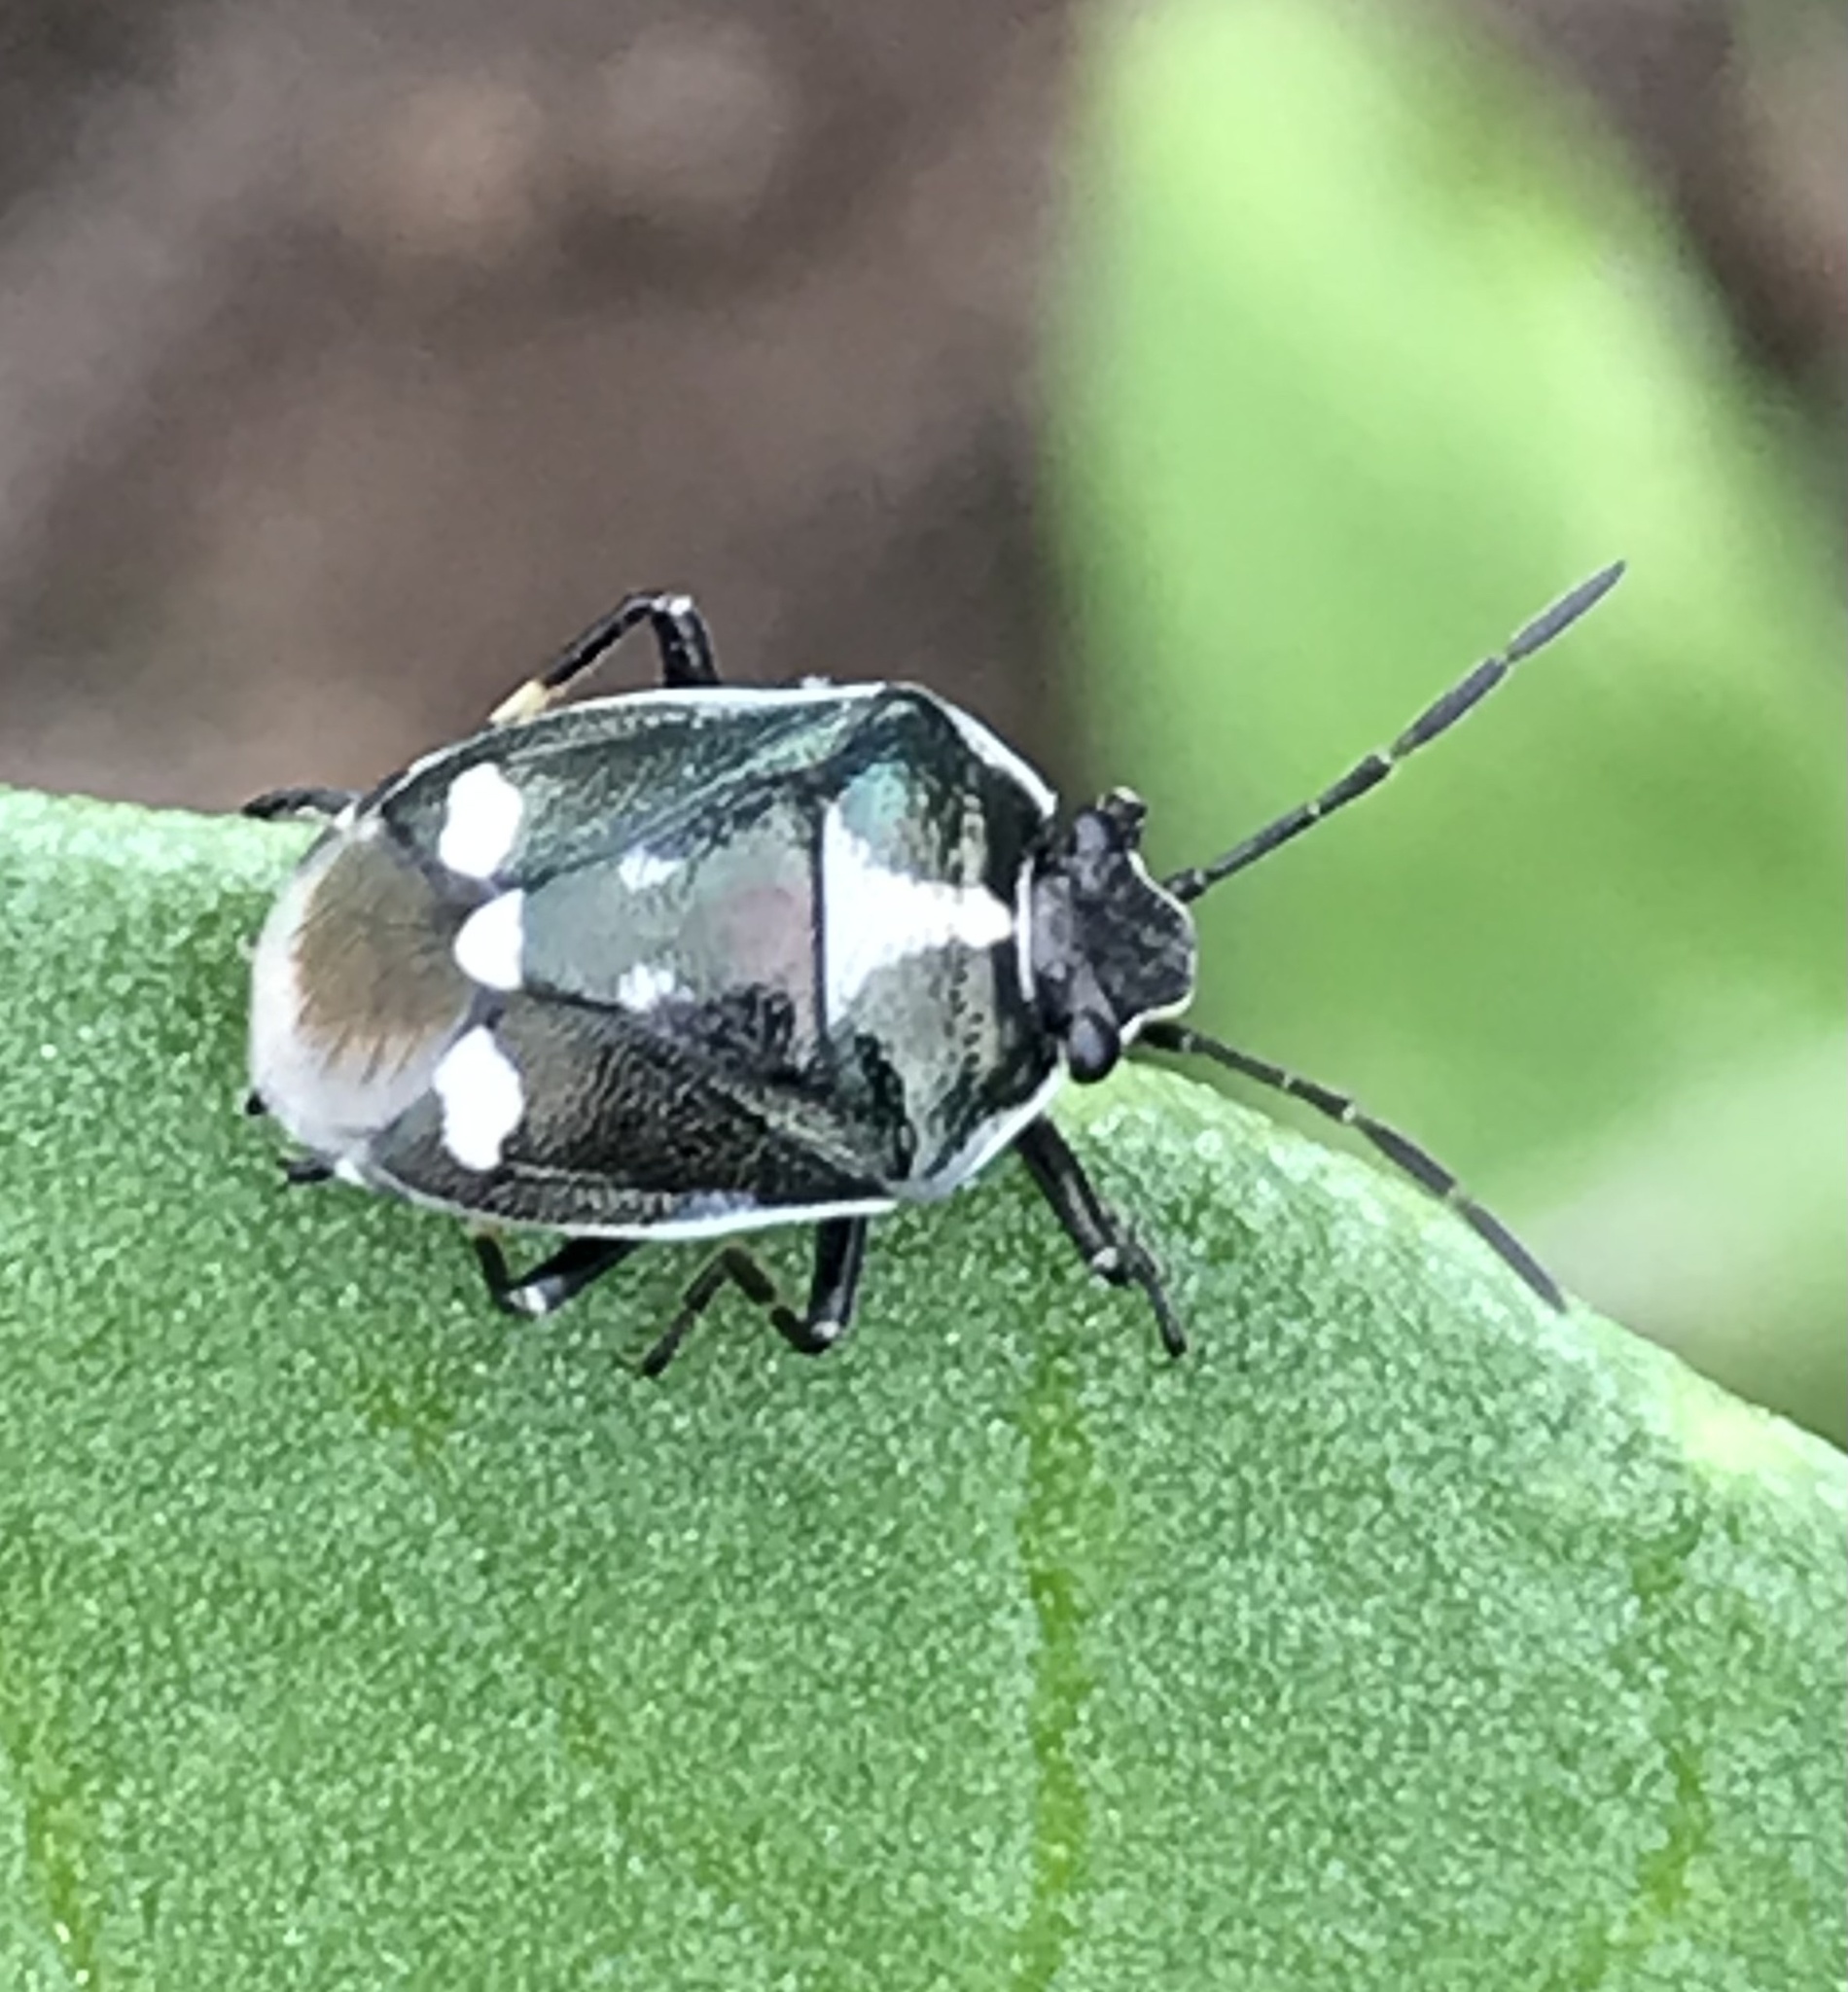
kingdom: Animalia
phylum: Arthropoda
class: Insecta
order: Hemiptera
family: Pentatomidae
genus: Eurydema
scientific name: Eurydema oleracea
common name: Cabbage bug
